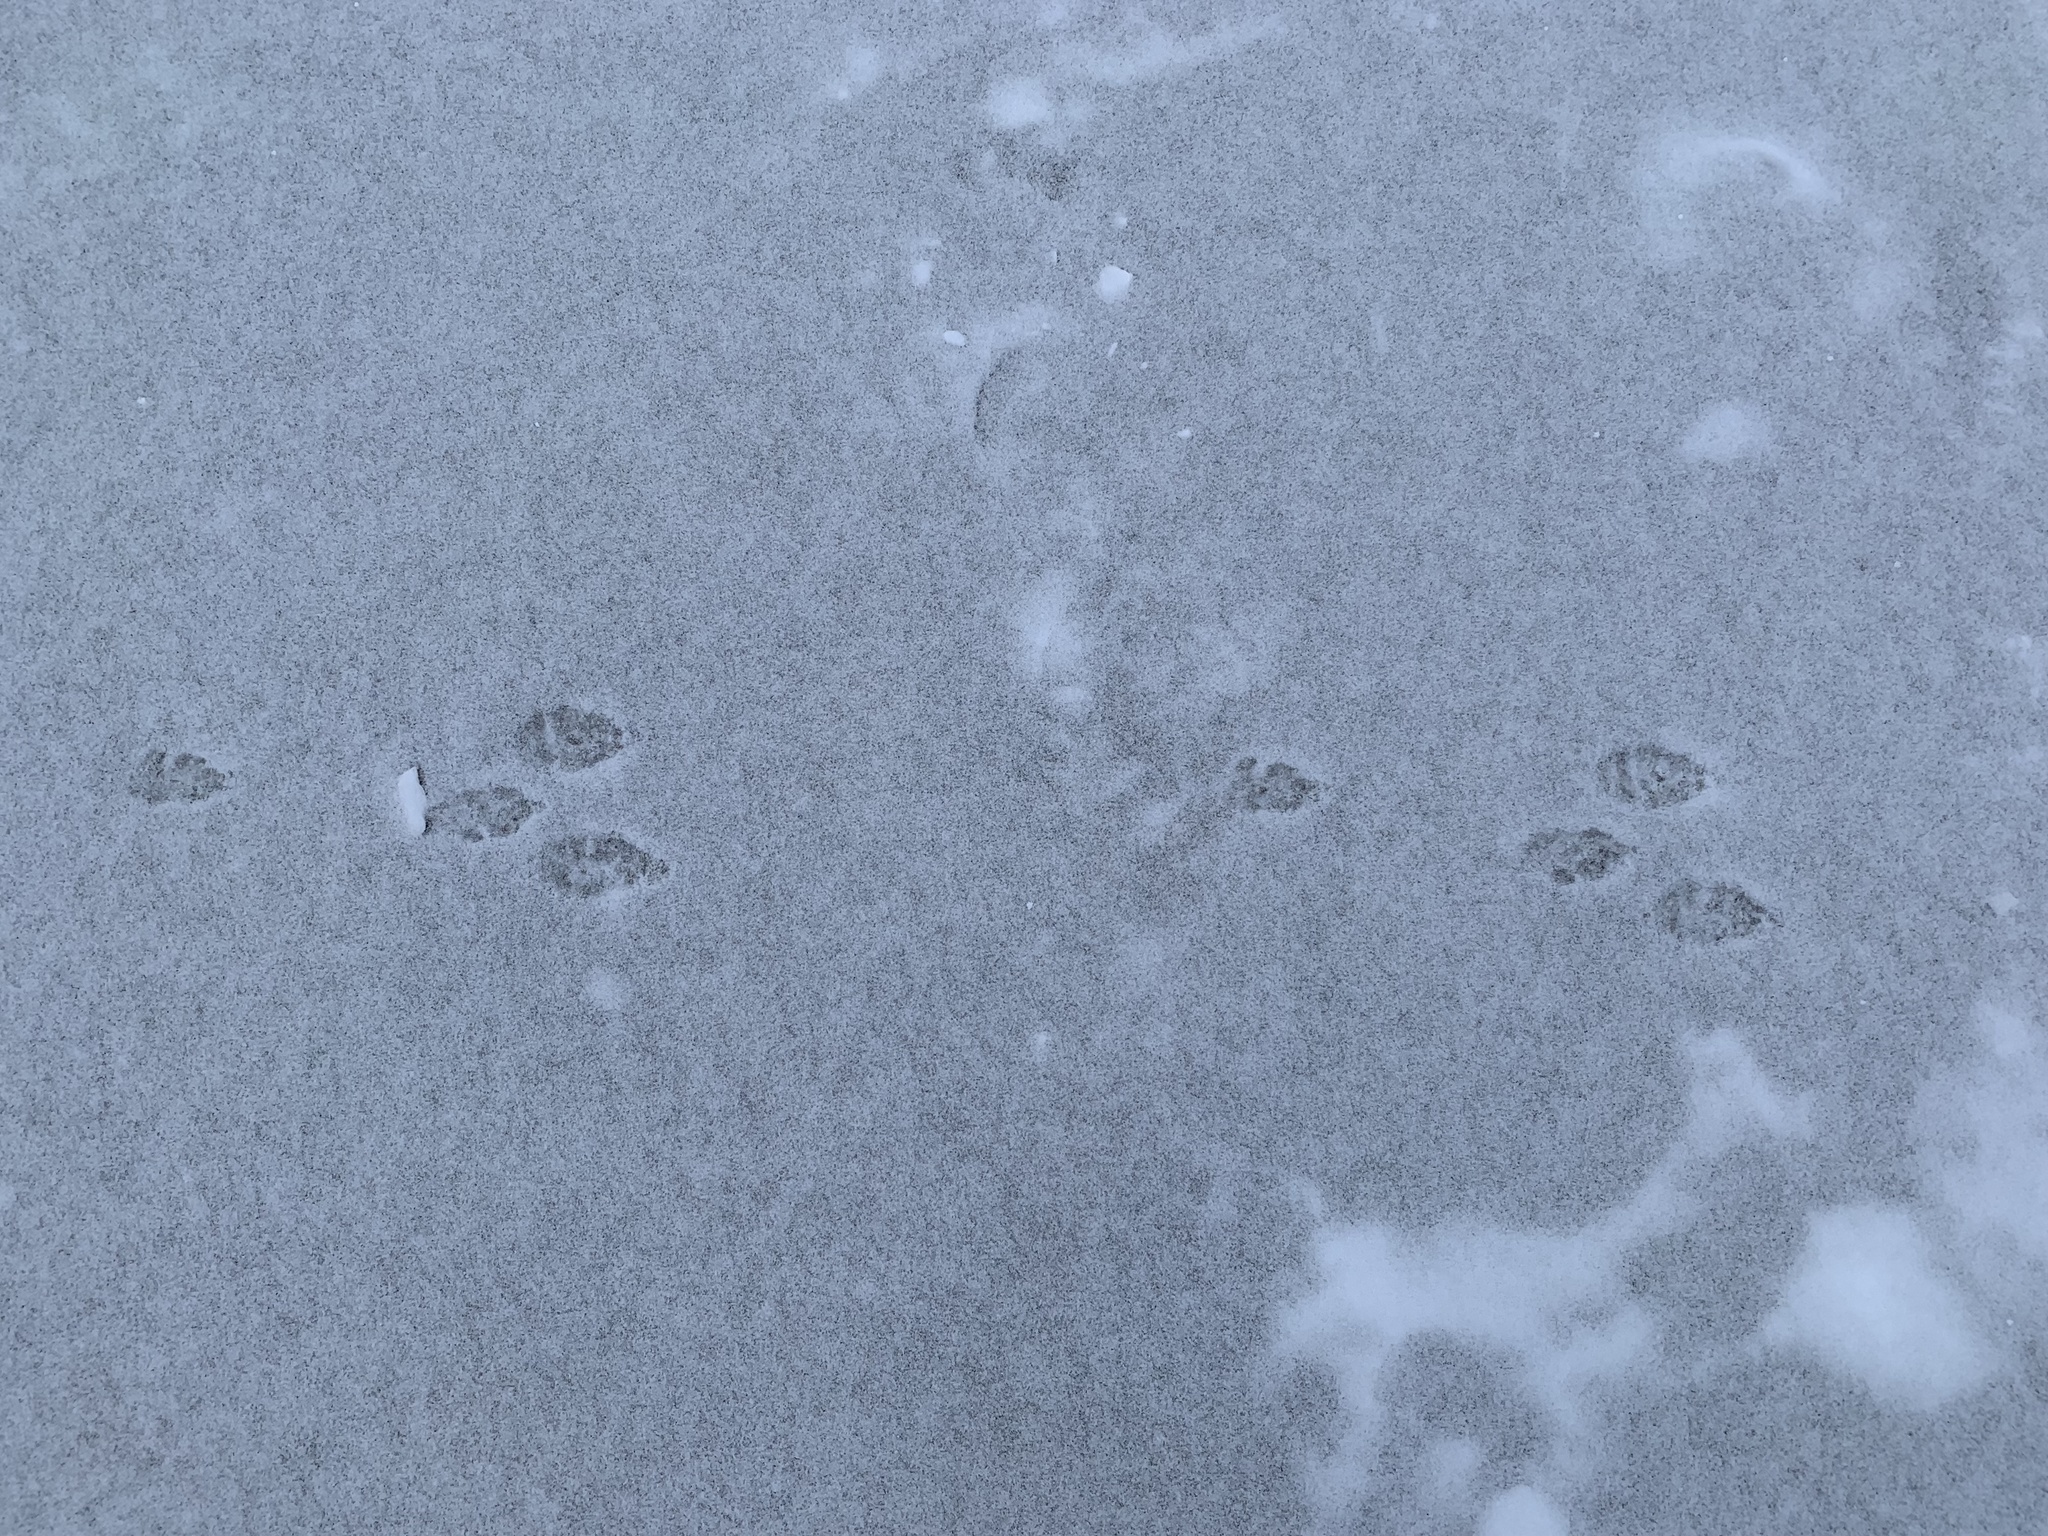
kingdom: Animalia
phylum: Chordata
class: Mammalia
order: Lagomorpha
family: Leporidae
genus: Sylvilagus
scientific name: Sylvilagus floridanus
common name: Eastern cottontail
